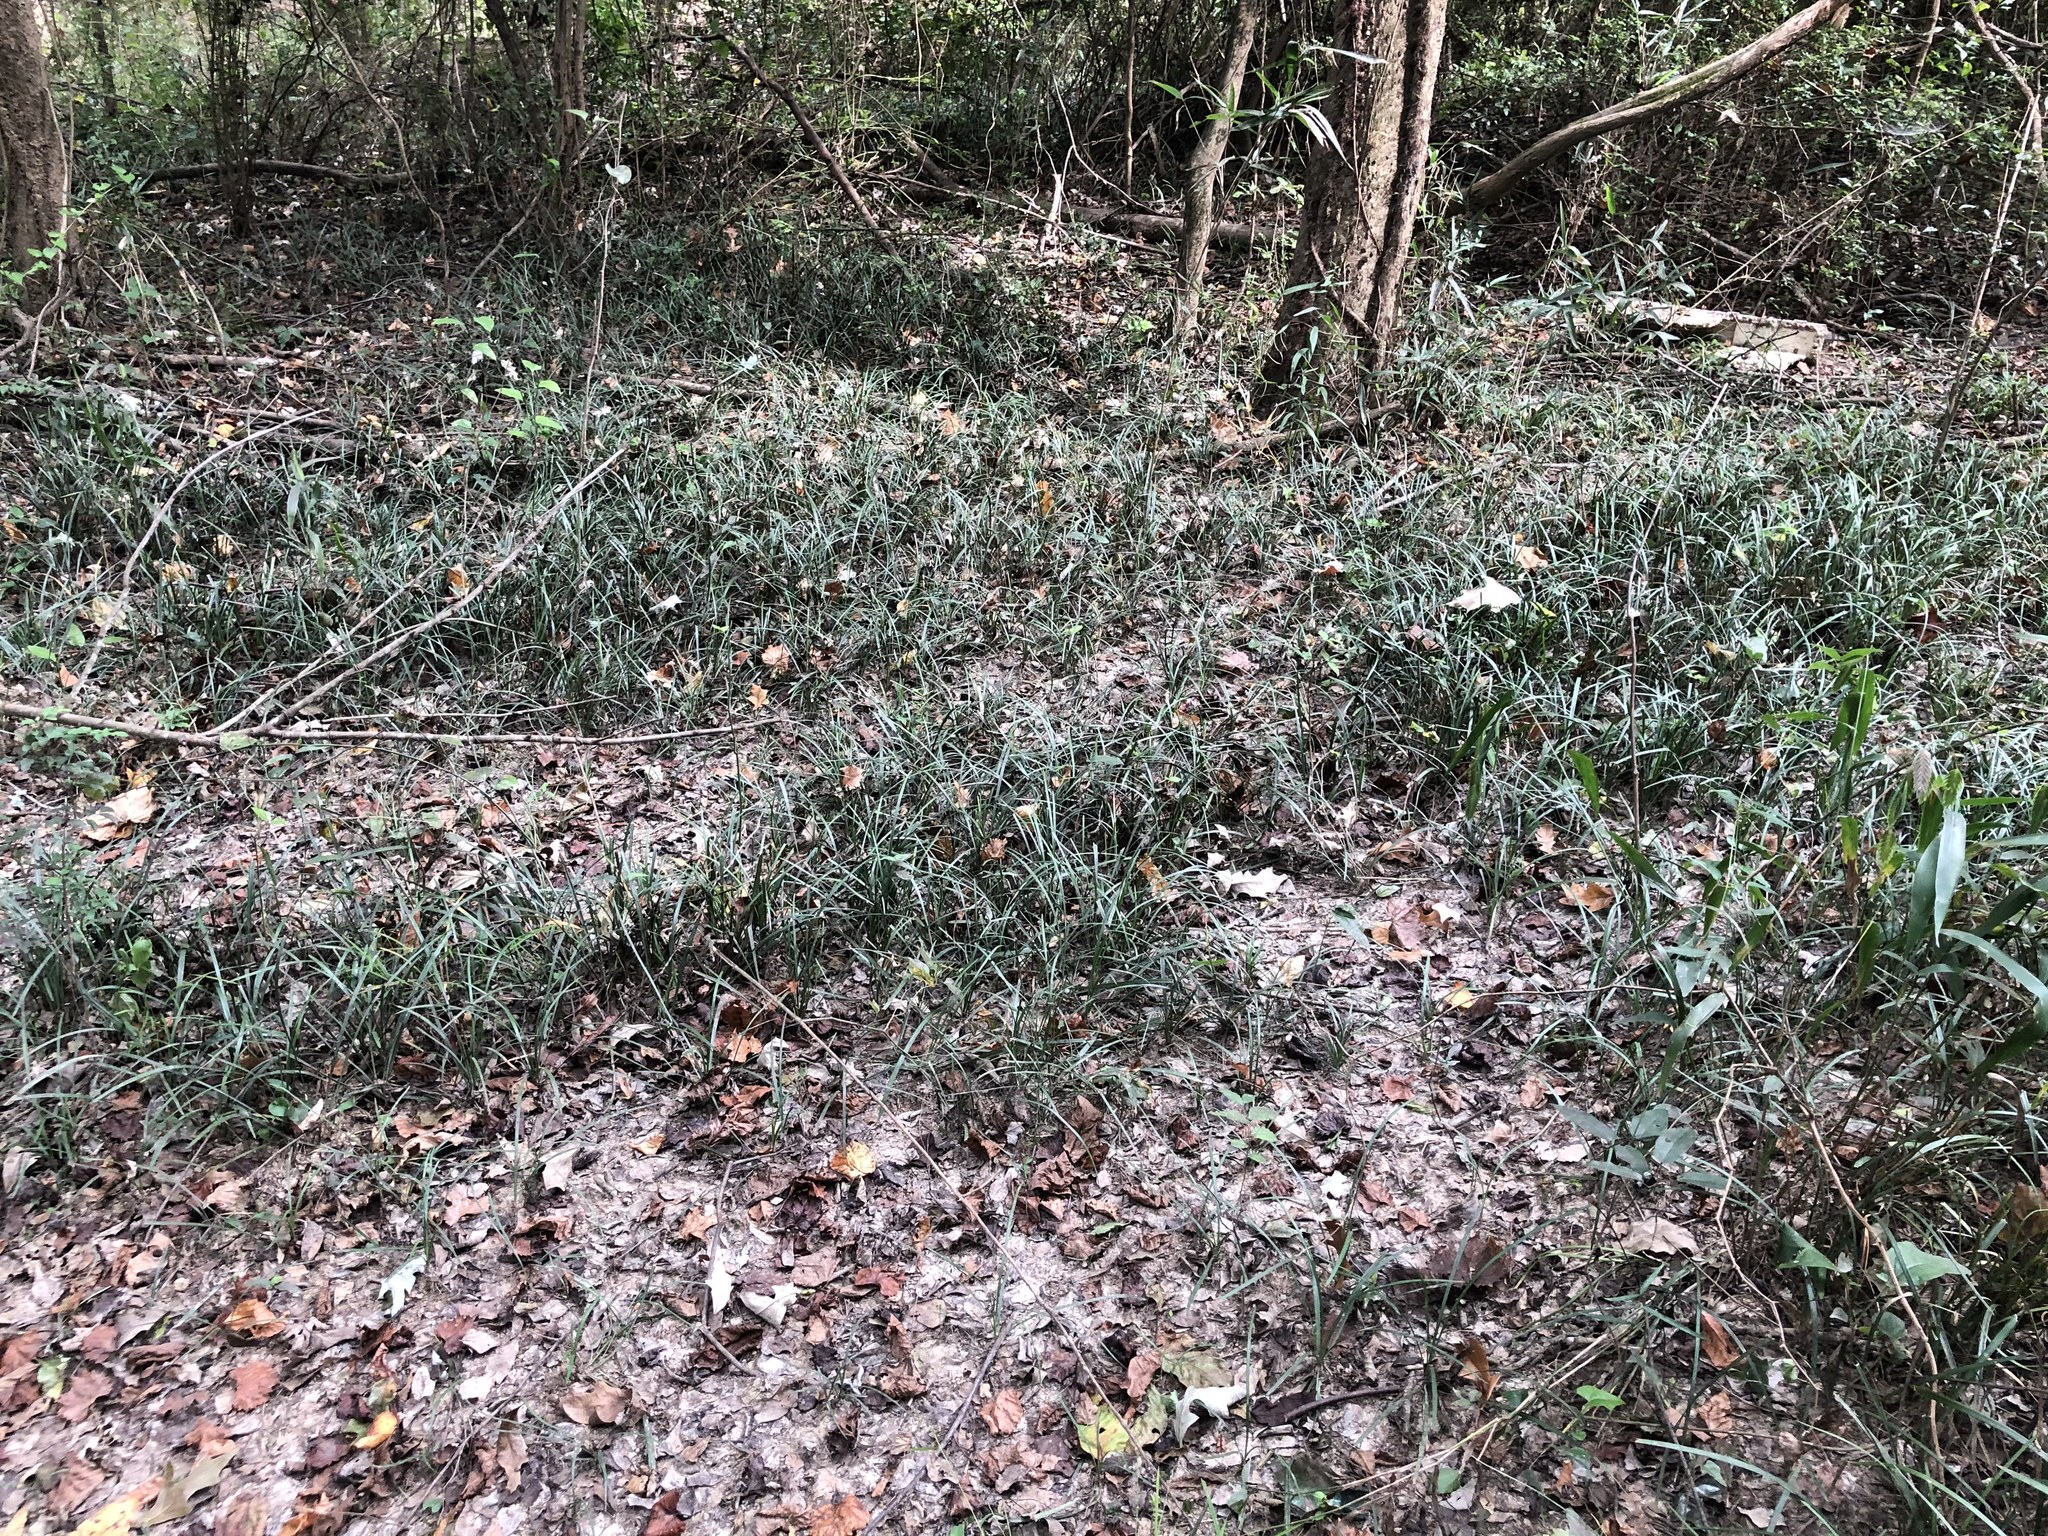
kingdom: Plantae
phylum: Tracheophyta
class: Liliopsida
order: Asparagales
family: Asparagaceae
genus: Liriope
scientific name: Liriope spicata
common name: Creeping liriope
